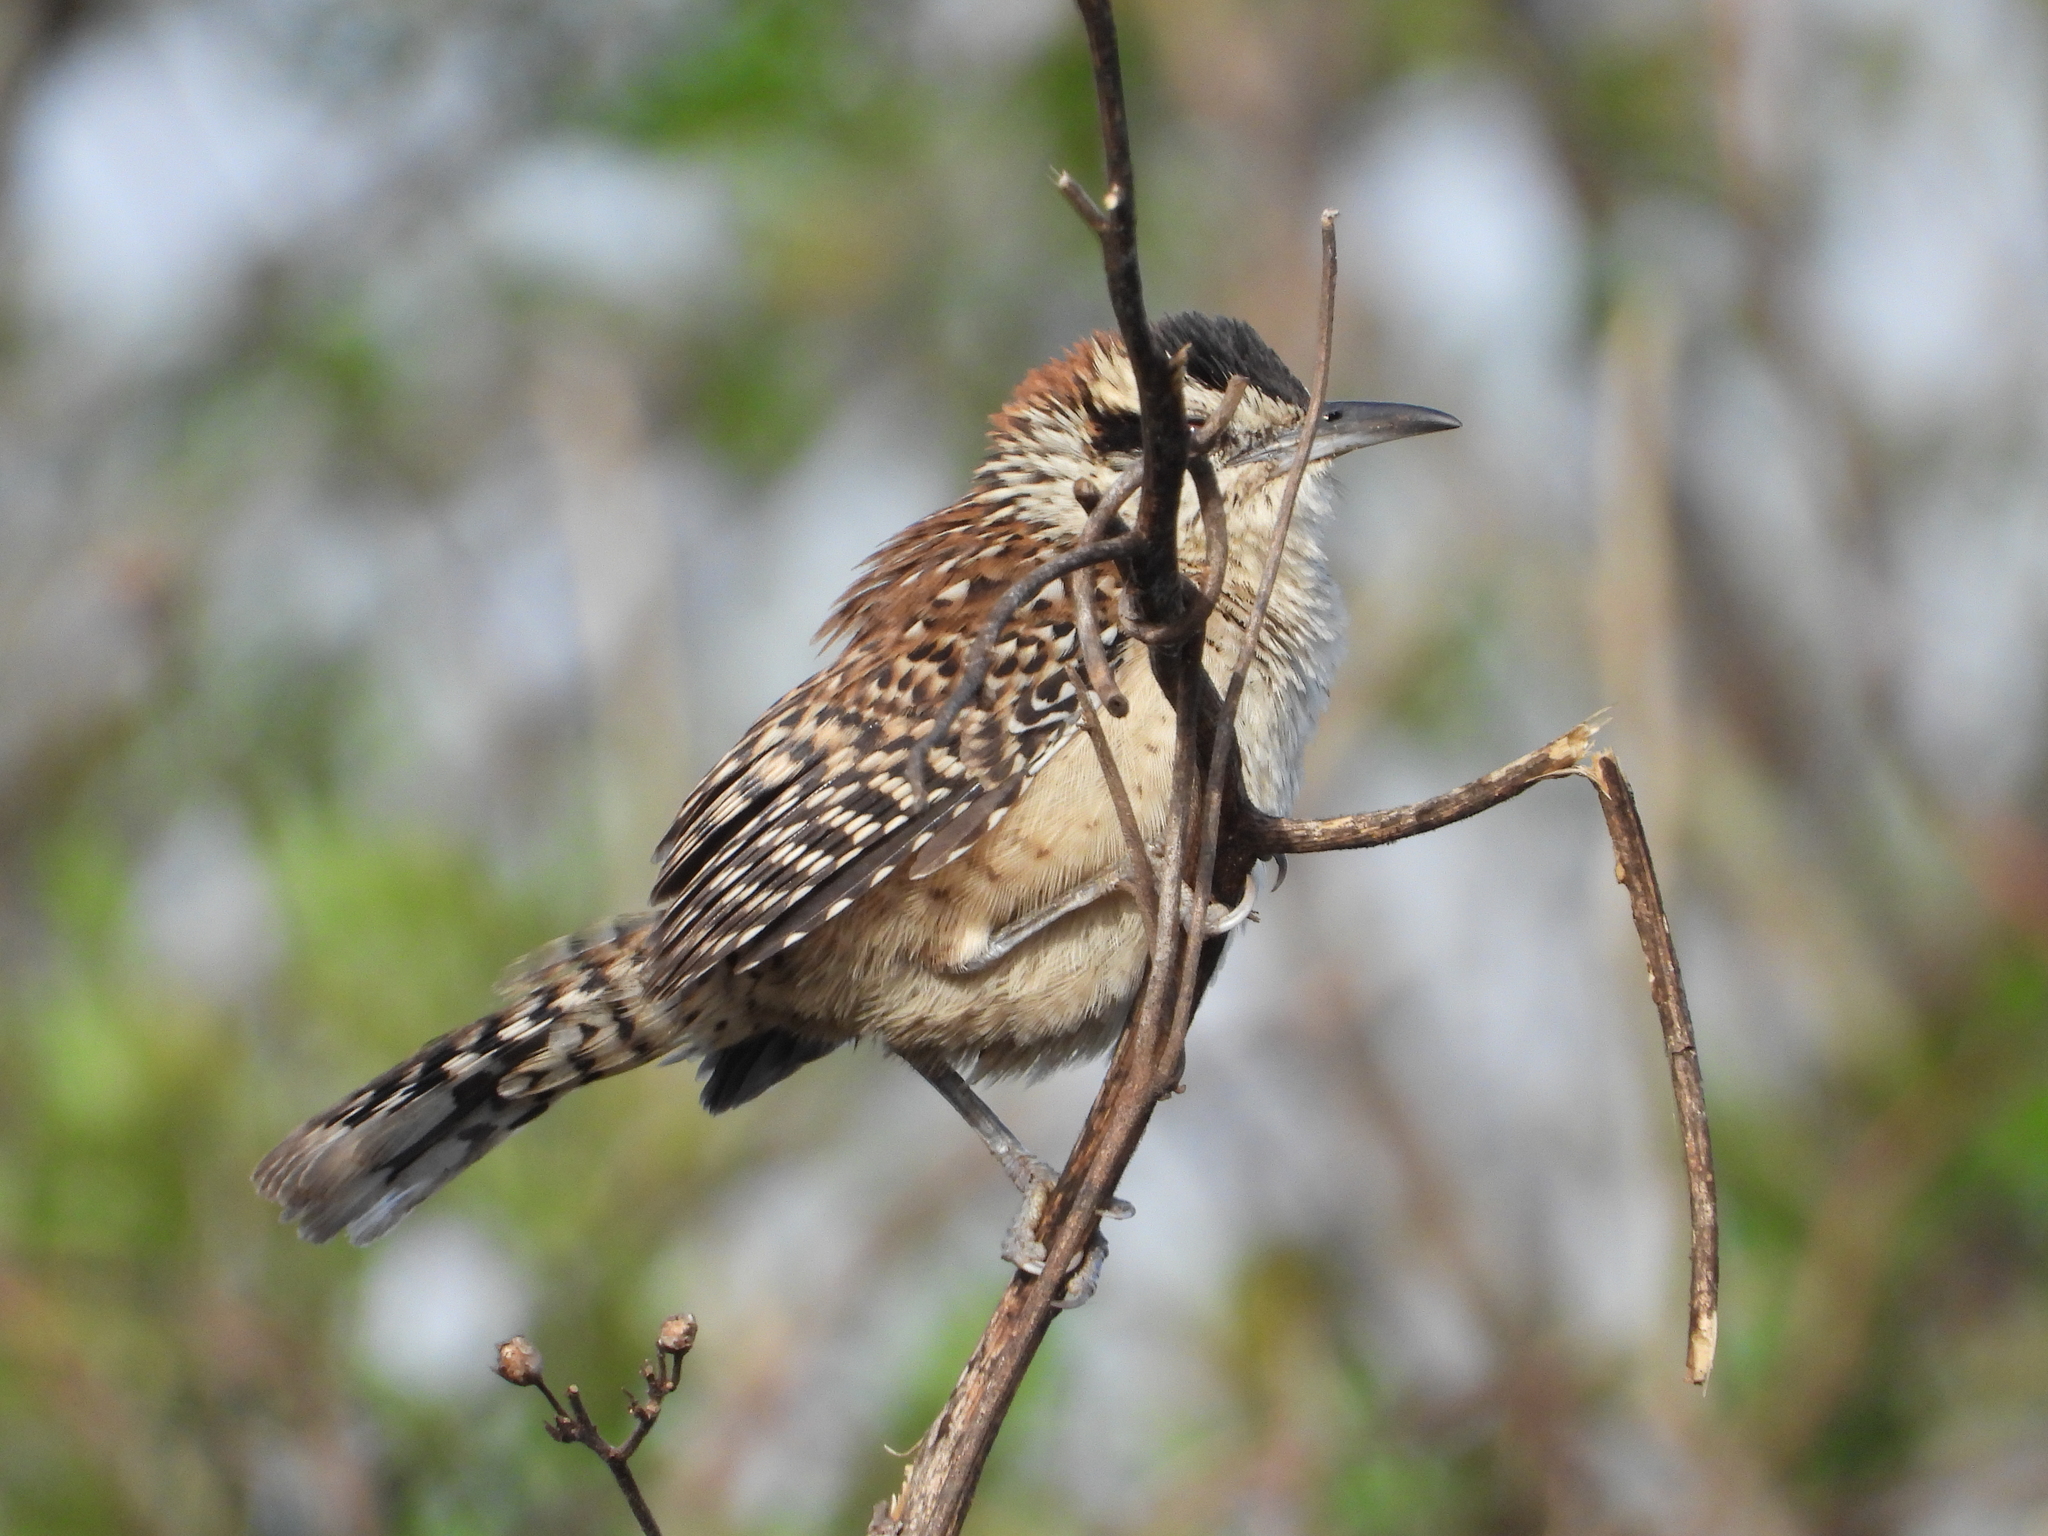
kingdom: Animalia
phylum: Chordata
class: Aves
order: Passeriformes
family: Troglodytidae
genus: Campylorhynchus
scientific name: Campylorhynchus rufinucha
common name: Rufous-naped wren
